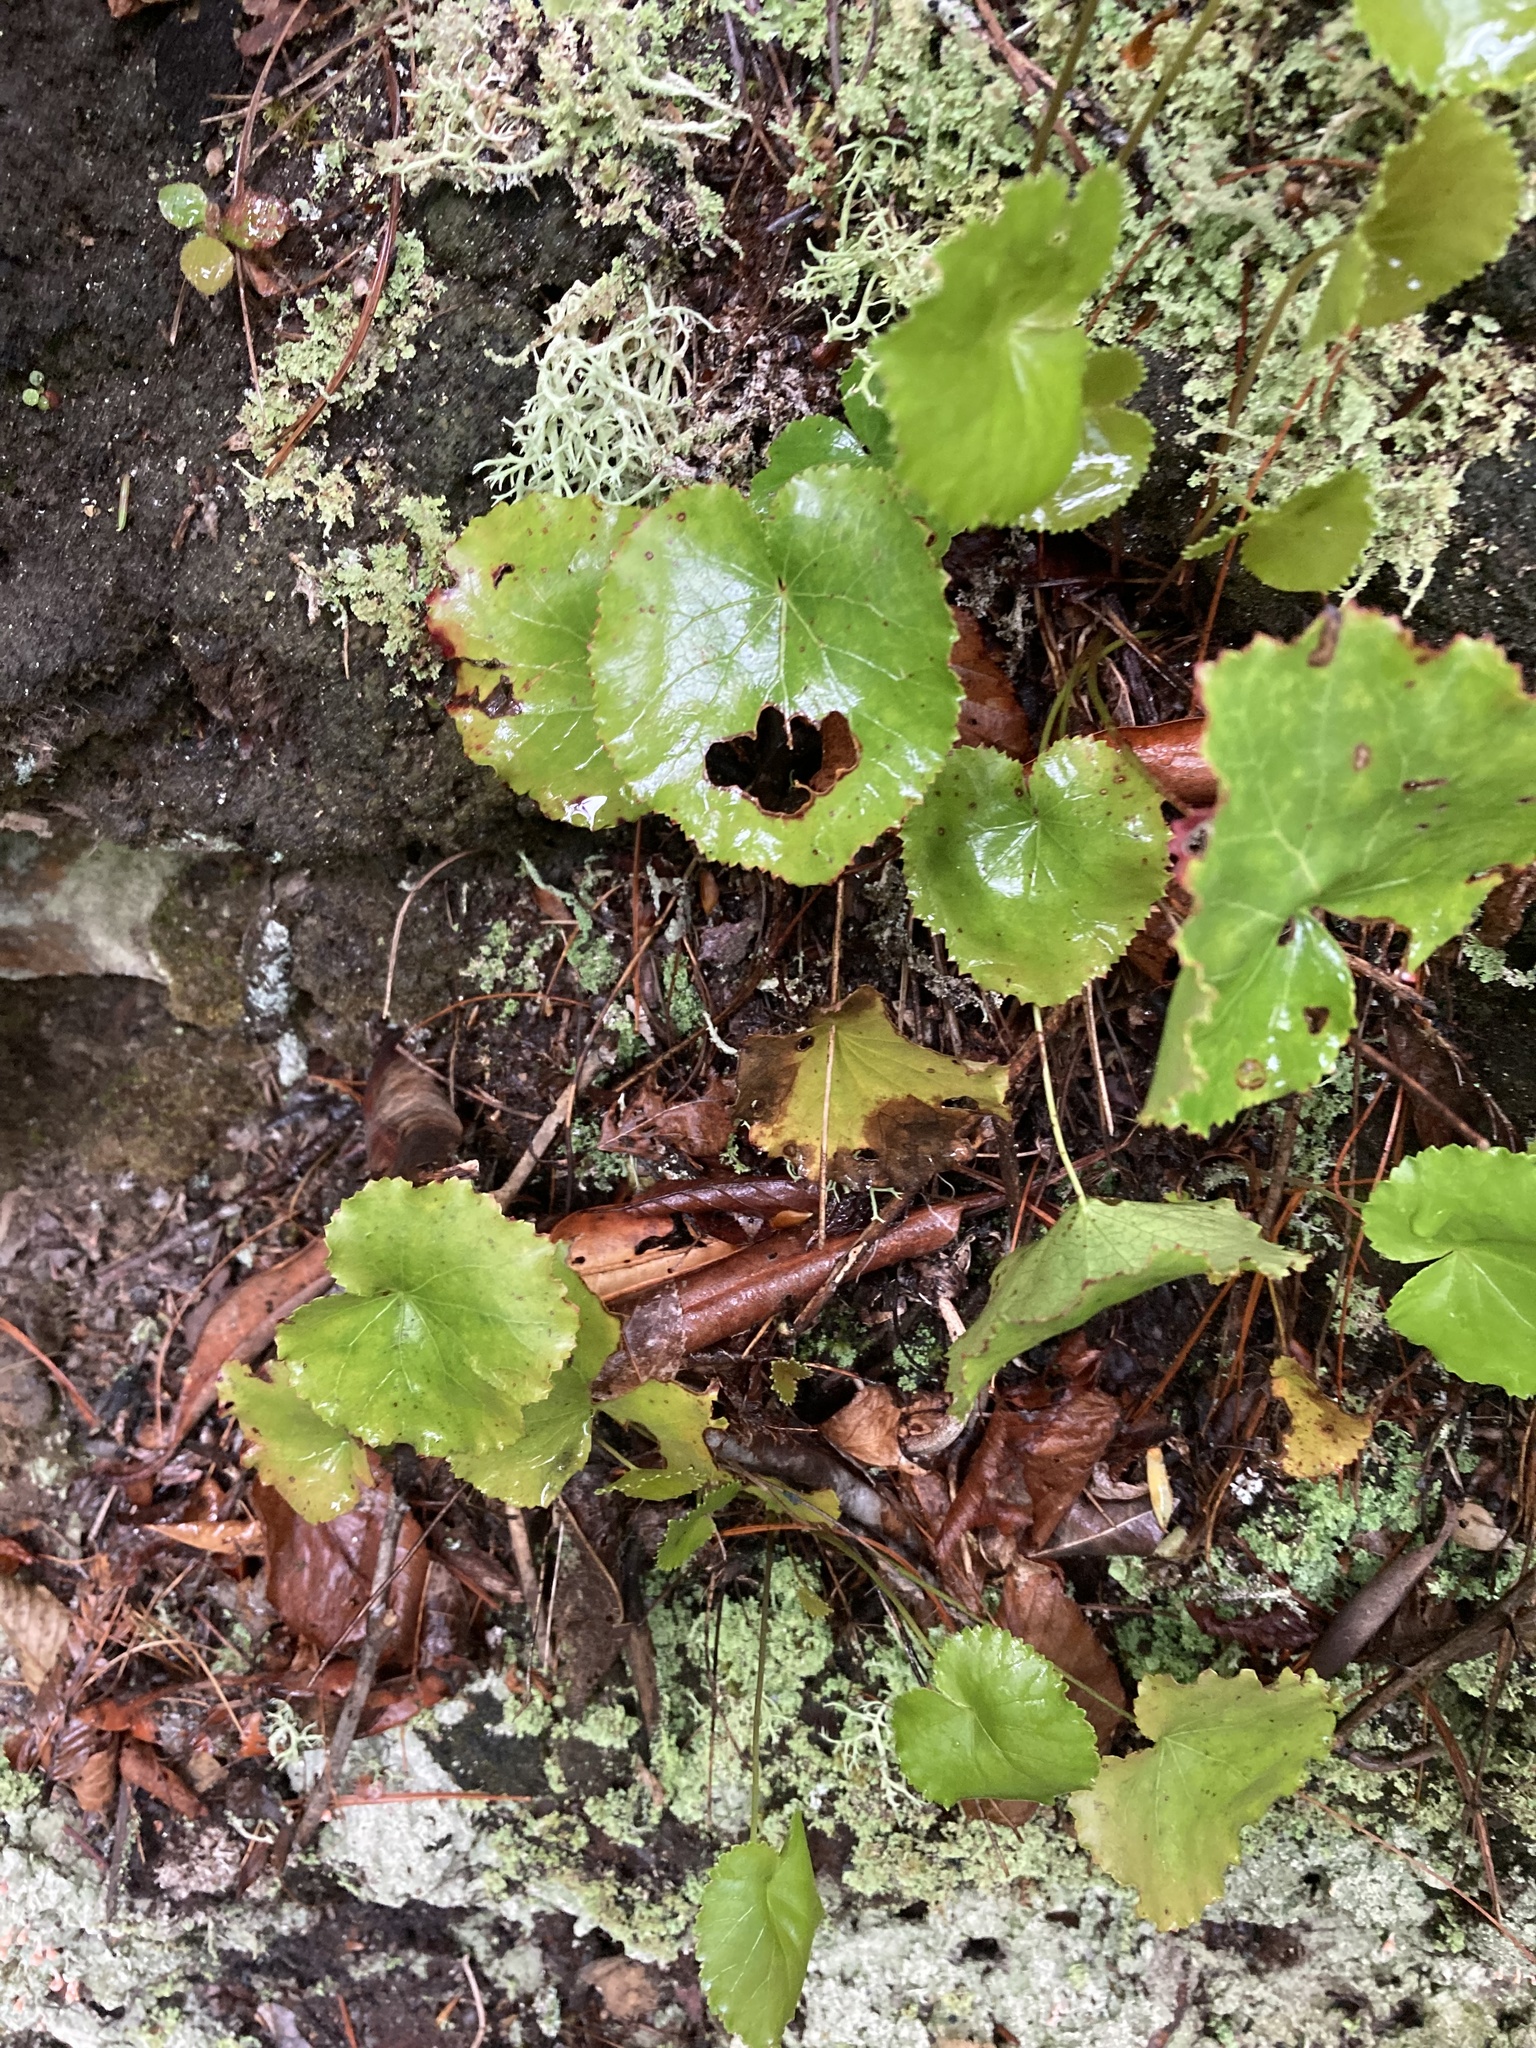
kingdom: Plantae
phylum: Tracheophyta
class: Magnoliopsida
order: Ericales
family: Diapensiaceae
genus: Galax
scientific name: Galax urceolata
